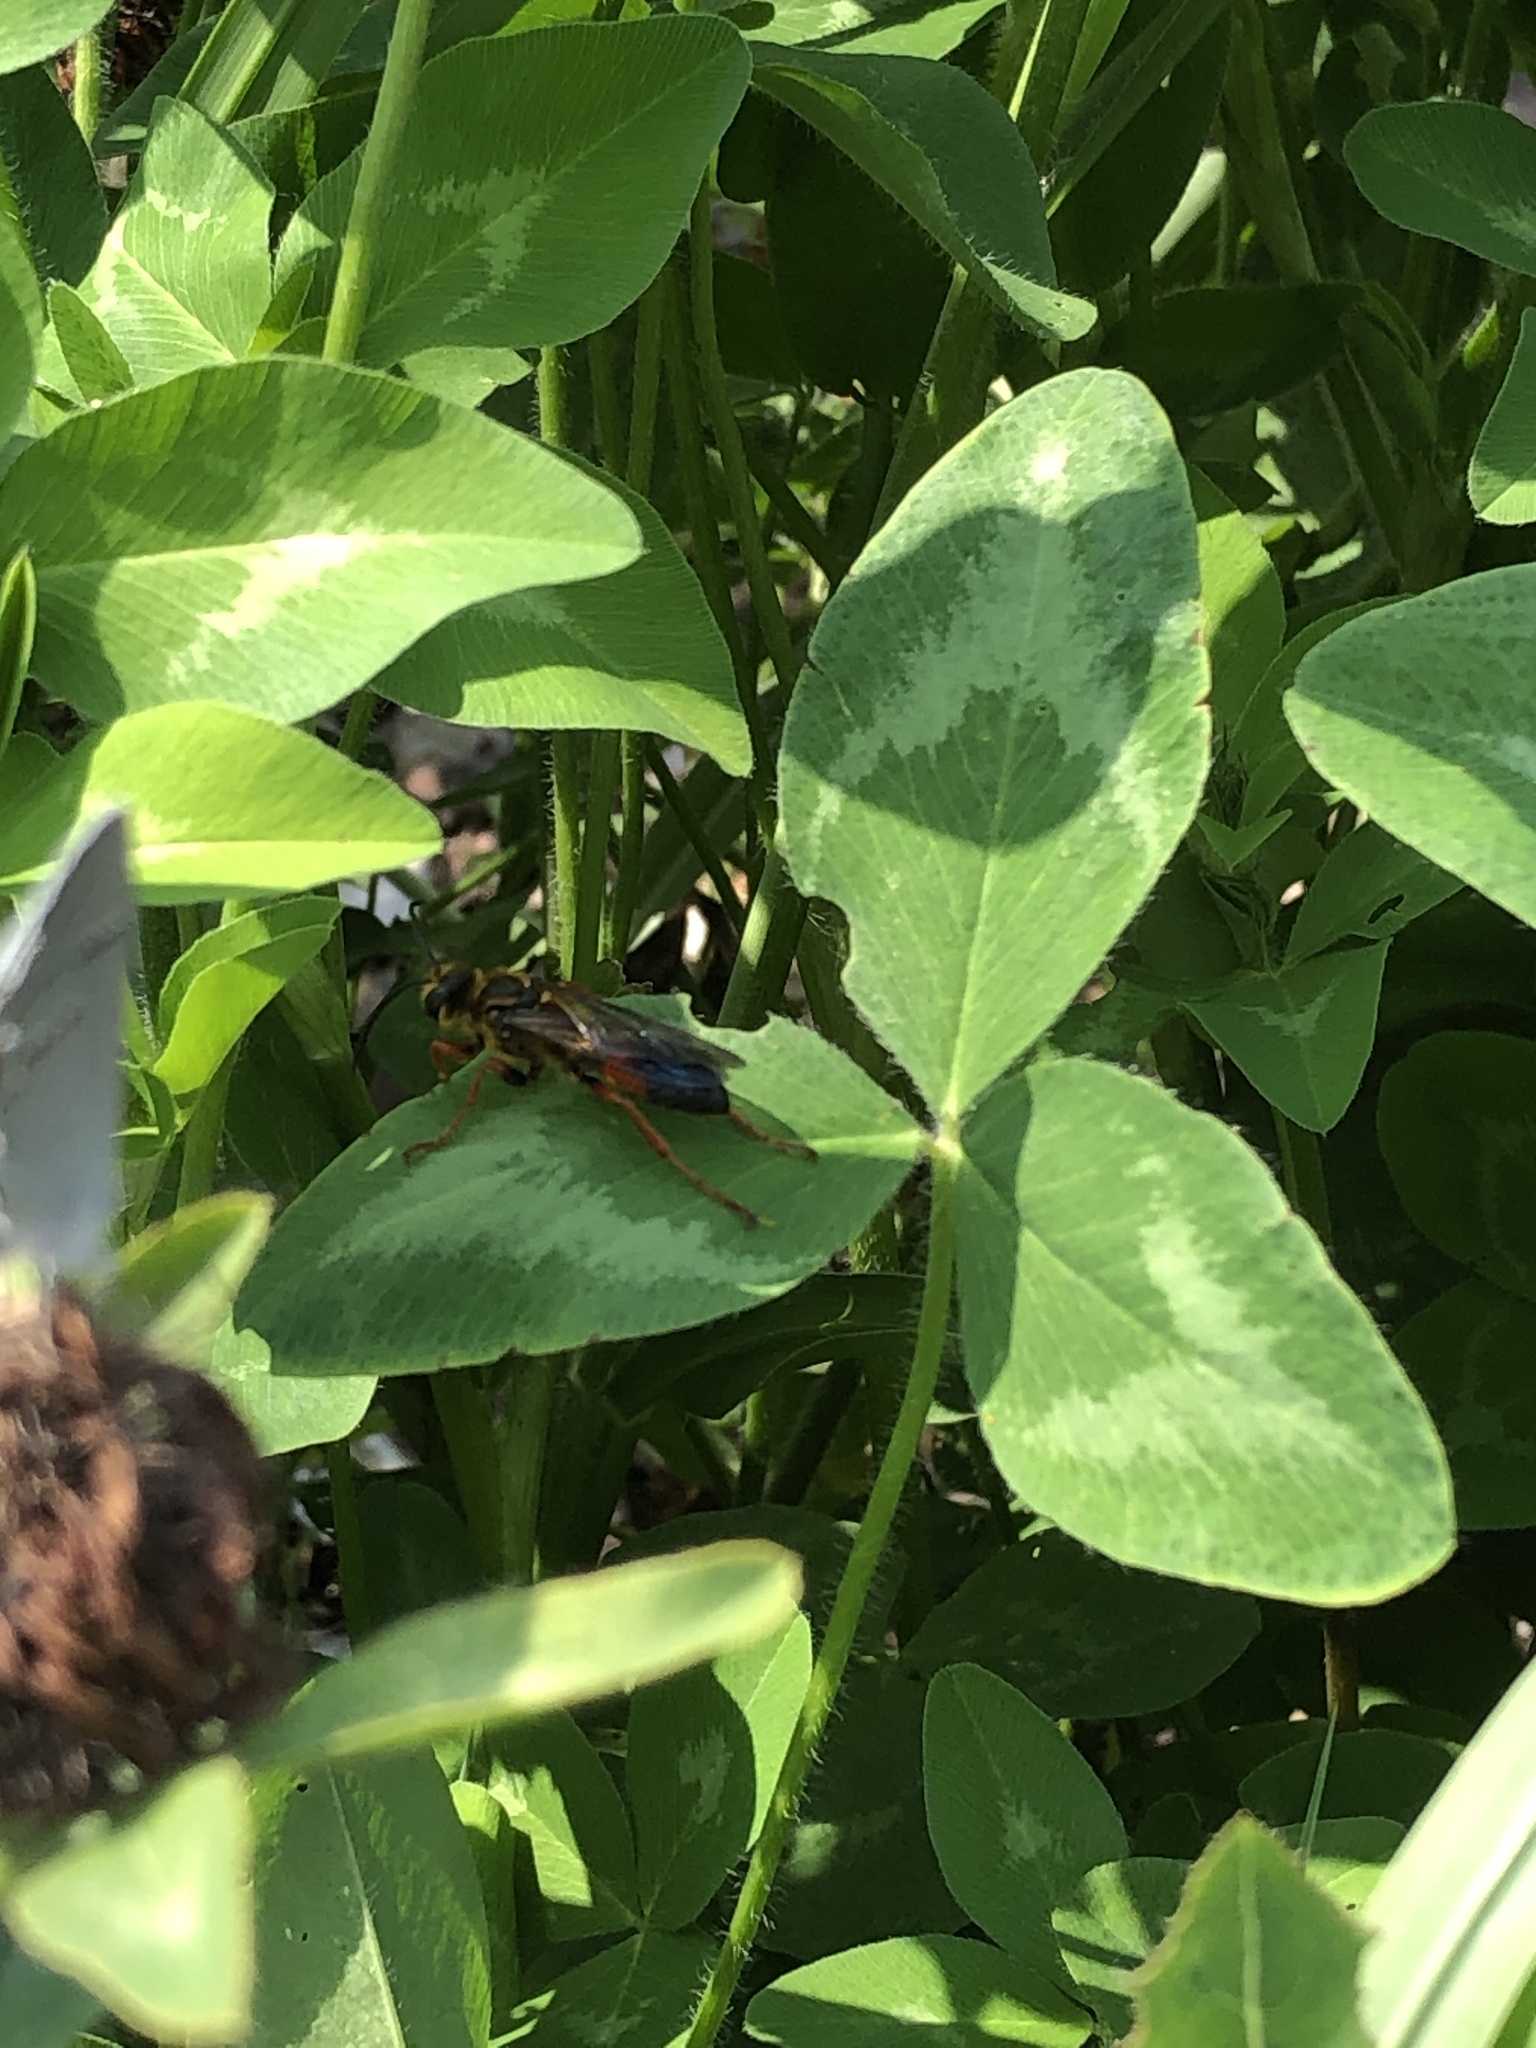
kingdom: Animalia
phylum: Arthropoda
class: Insecta
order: Hymenoptera
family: Sphecidae
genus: Sphex
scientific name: Sphex ichneumoneus
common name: Great golden digger wasp
